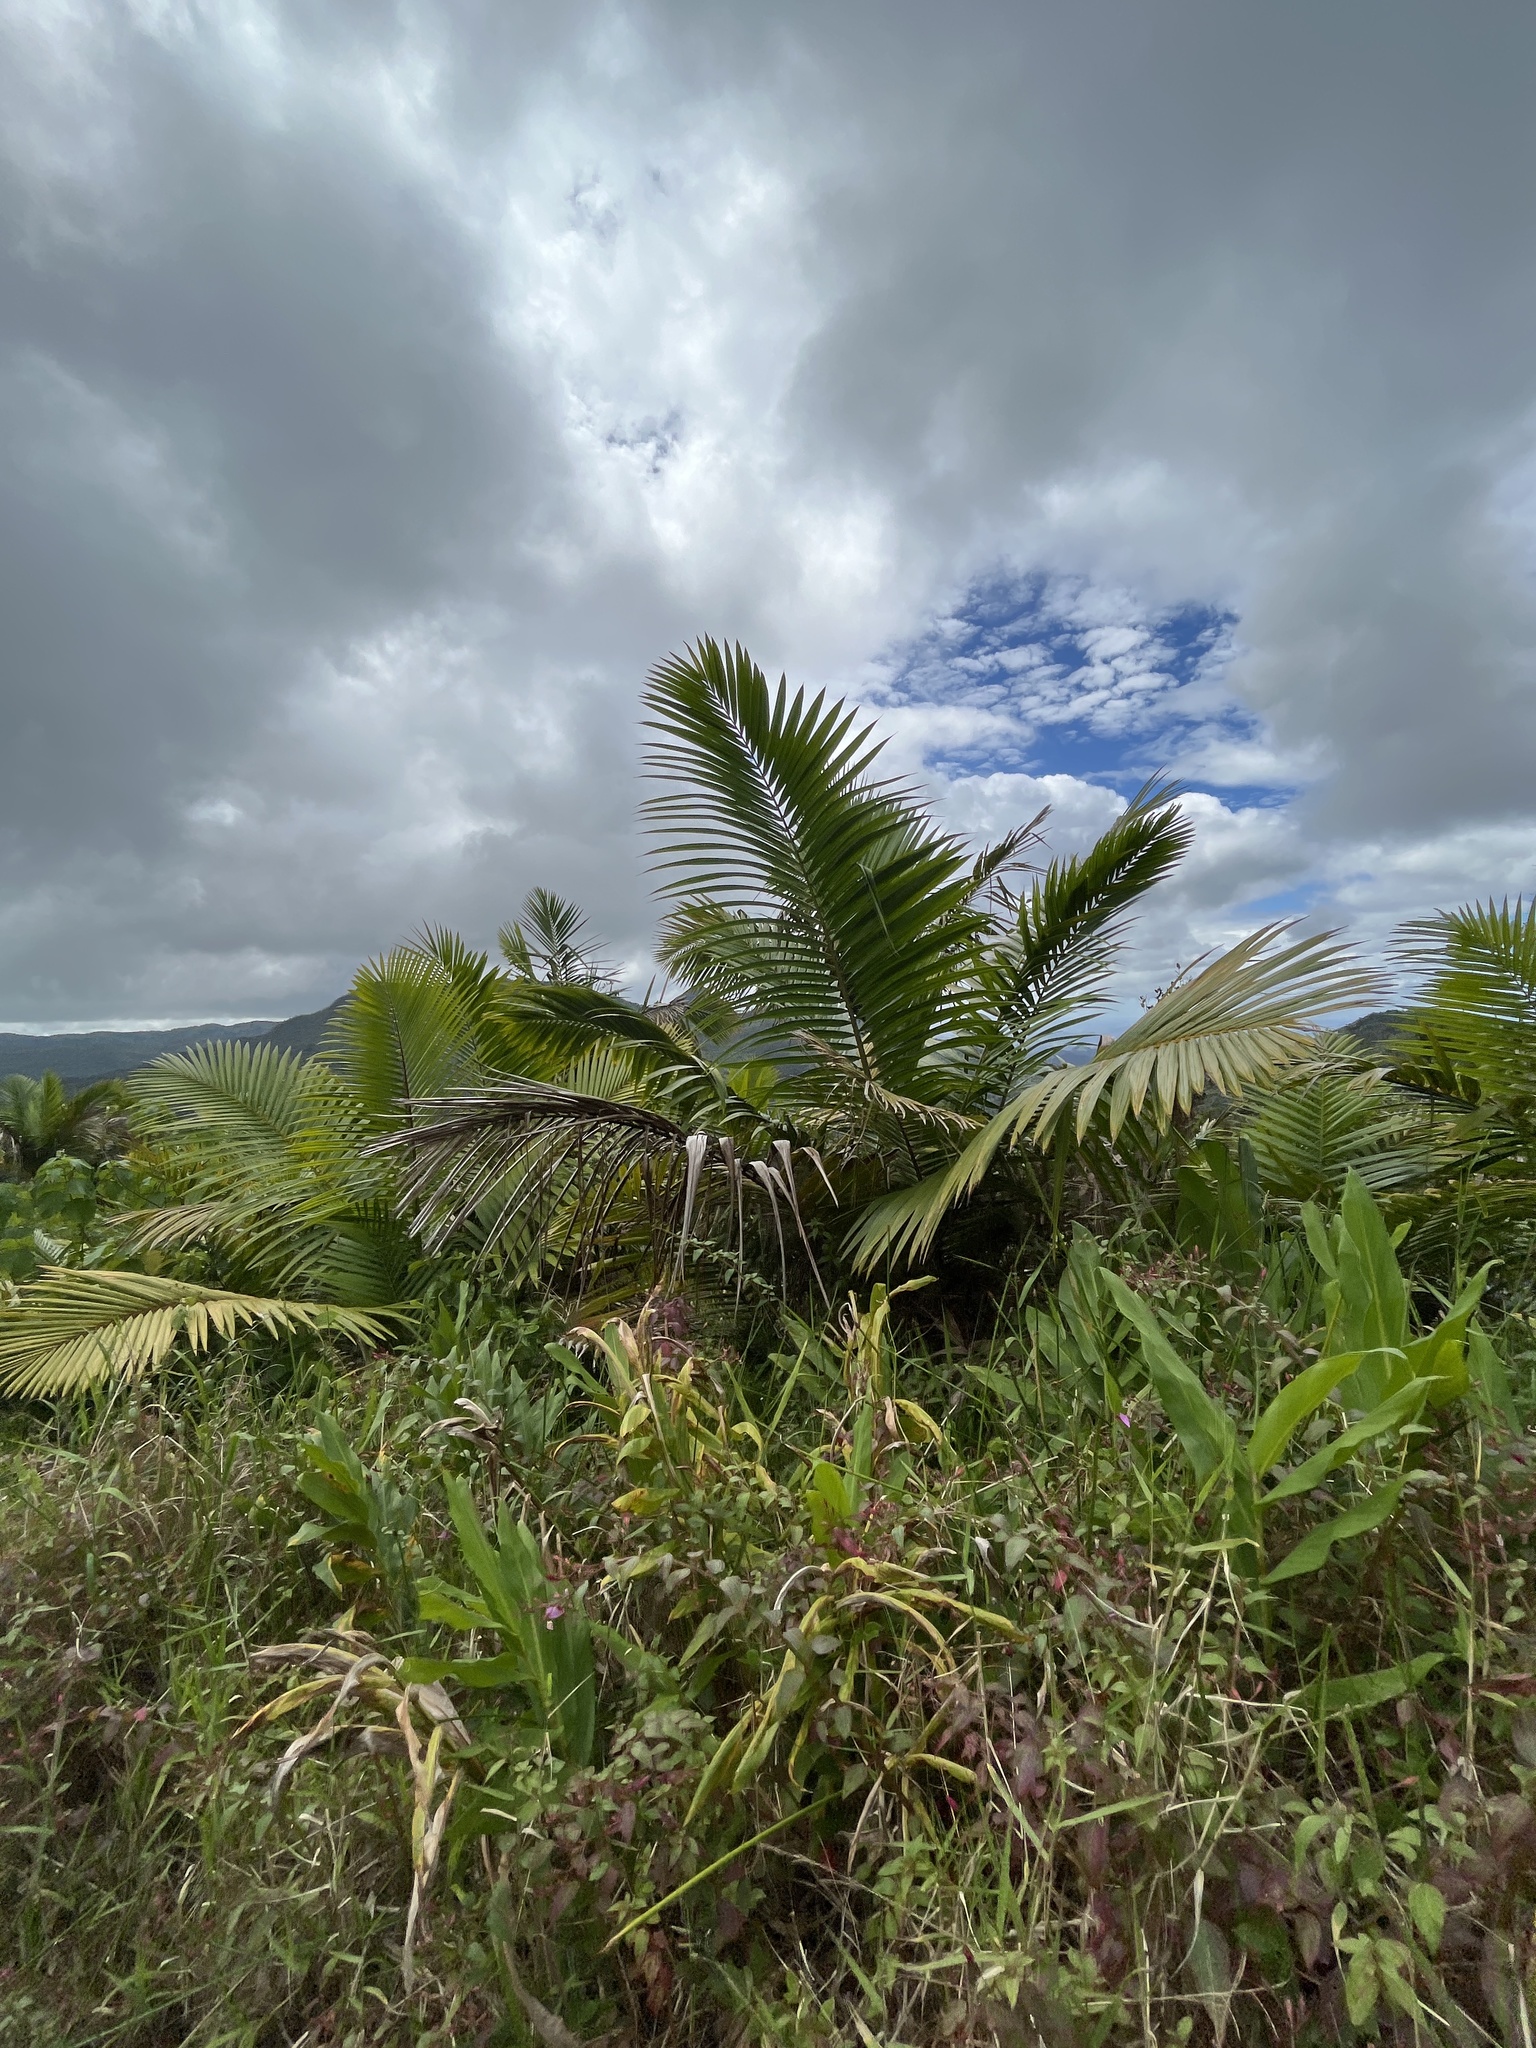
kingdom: Plantae
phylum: Tracheophyta
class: Liliopsida
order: Arecales
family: Arecaceae
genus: Prestoea
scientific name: Prestoea acuminata
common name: Sierran palm
